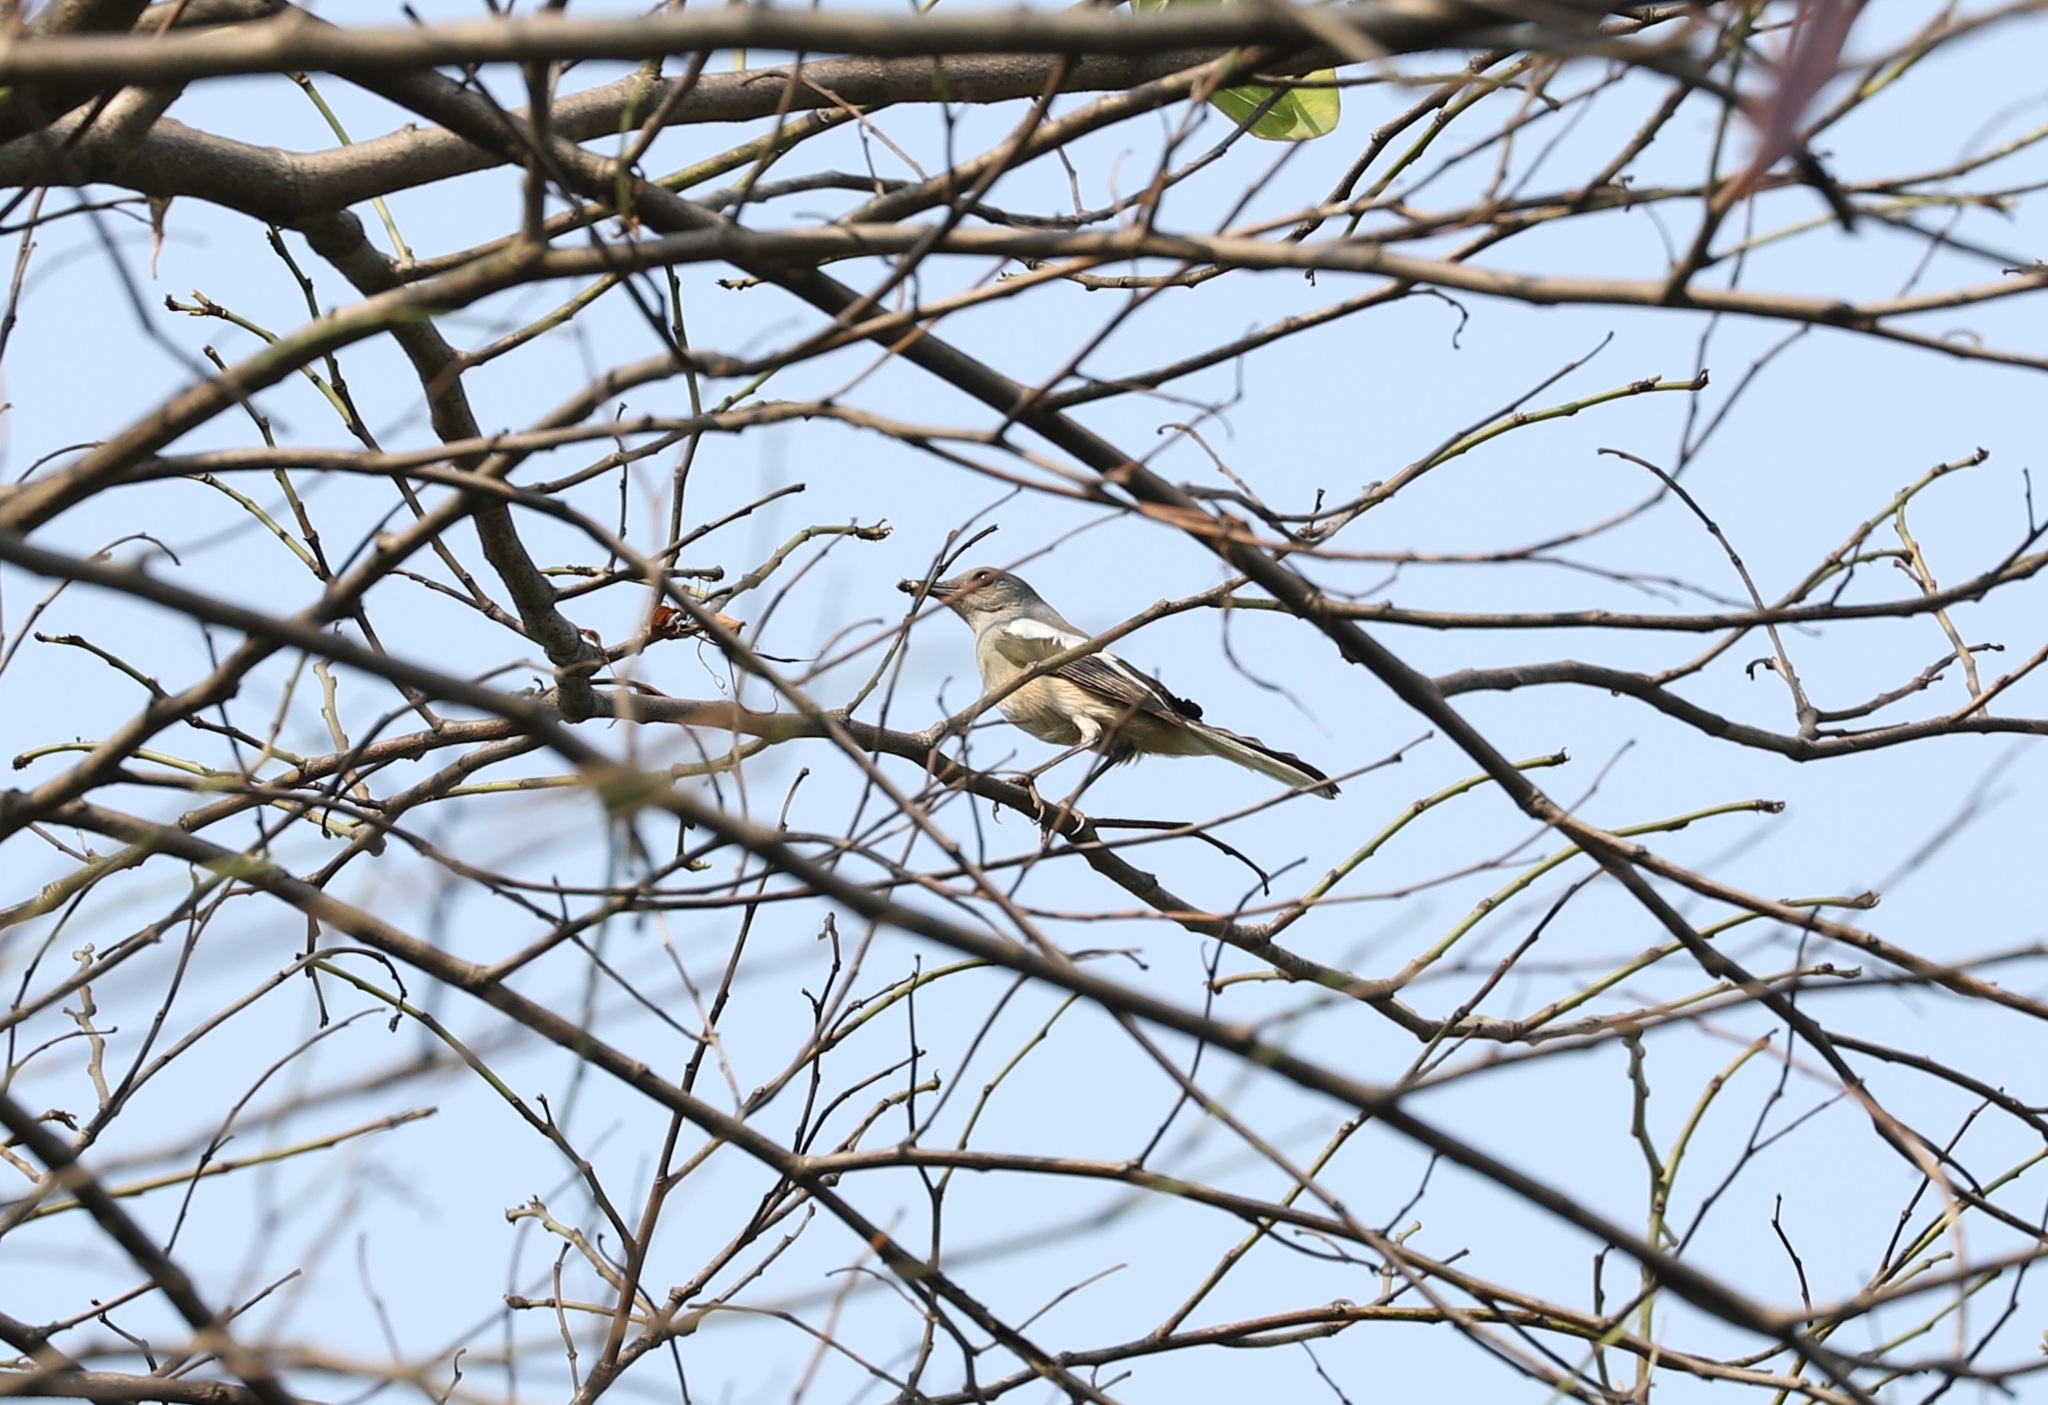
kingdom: Animalia
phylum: Chordata
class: Aves
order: Passeriformes
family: Muscicapidae
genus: Copsychus
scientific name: Copsychus saularis
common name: Oriental magpie-robin
